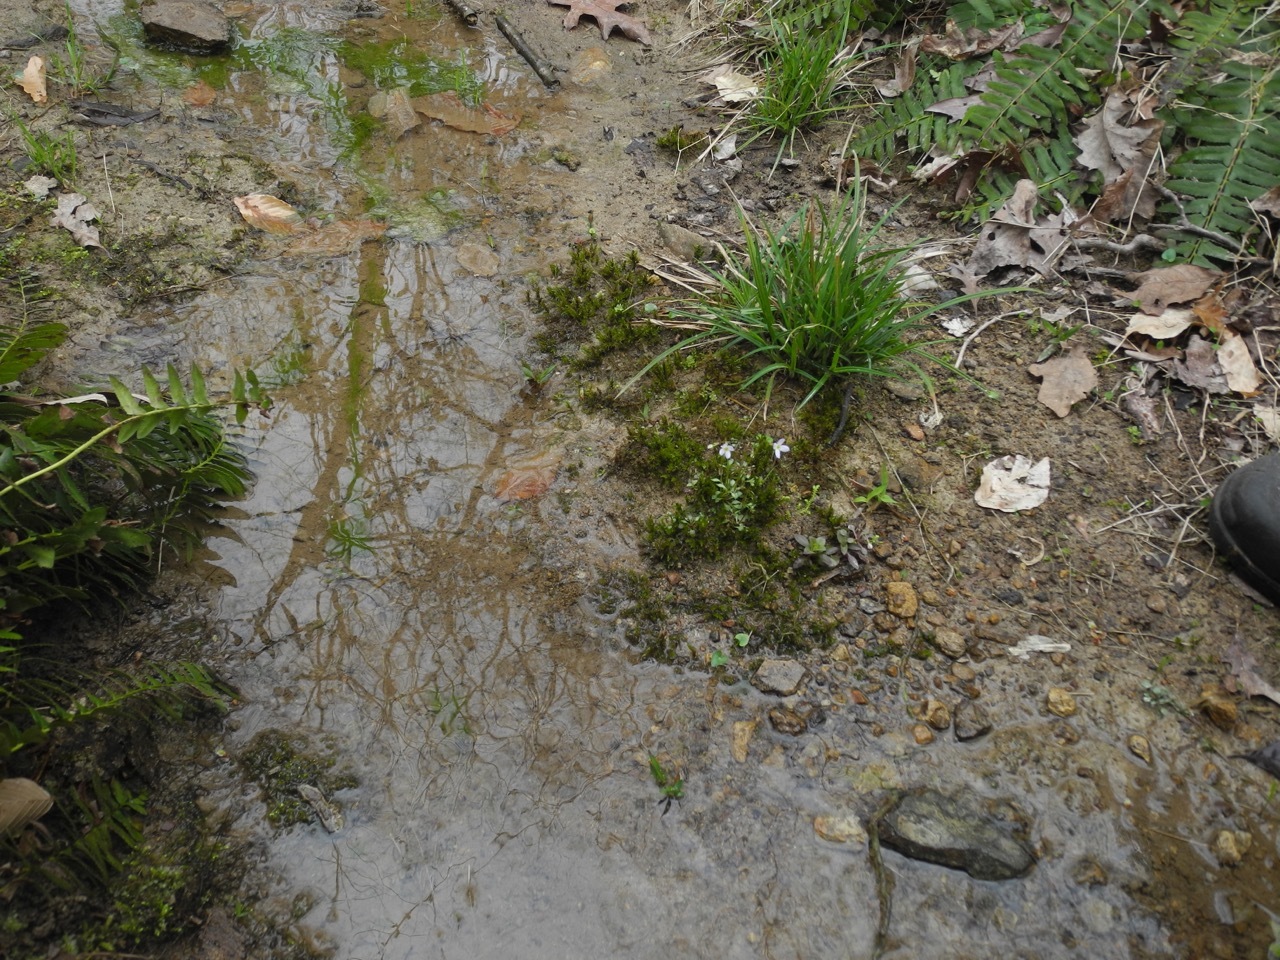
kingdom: Plantae
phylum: Tracheophyta
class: Magnoliopsida
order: Gentianales
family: Rubiaceae
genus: Houstonia
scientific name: Houstonia caerulea
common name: Bluets
